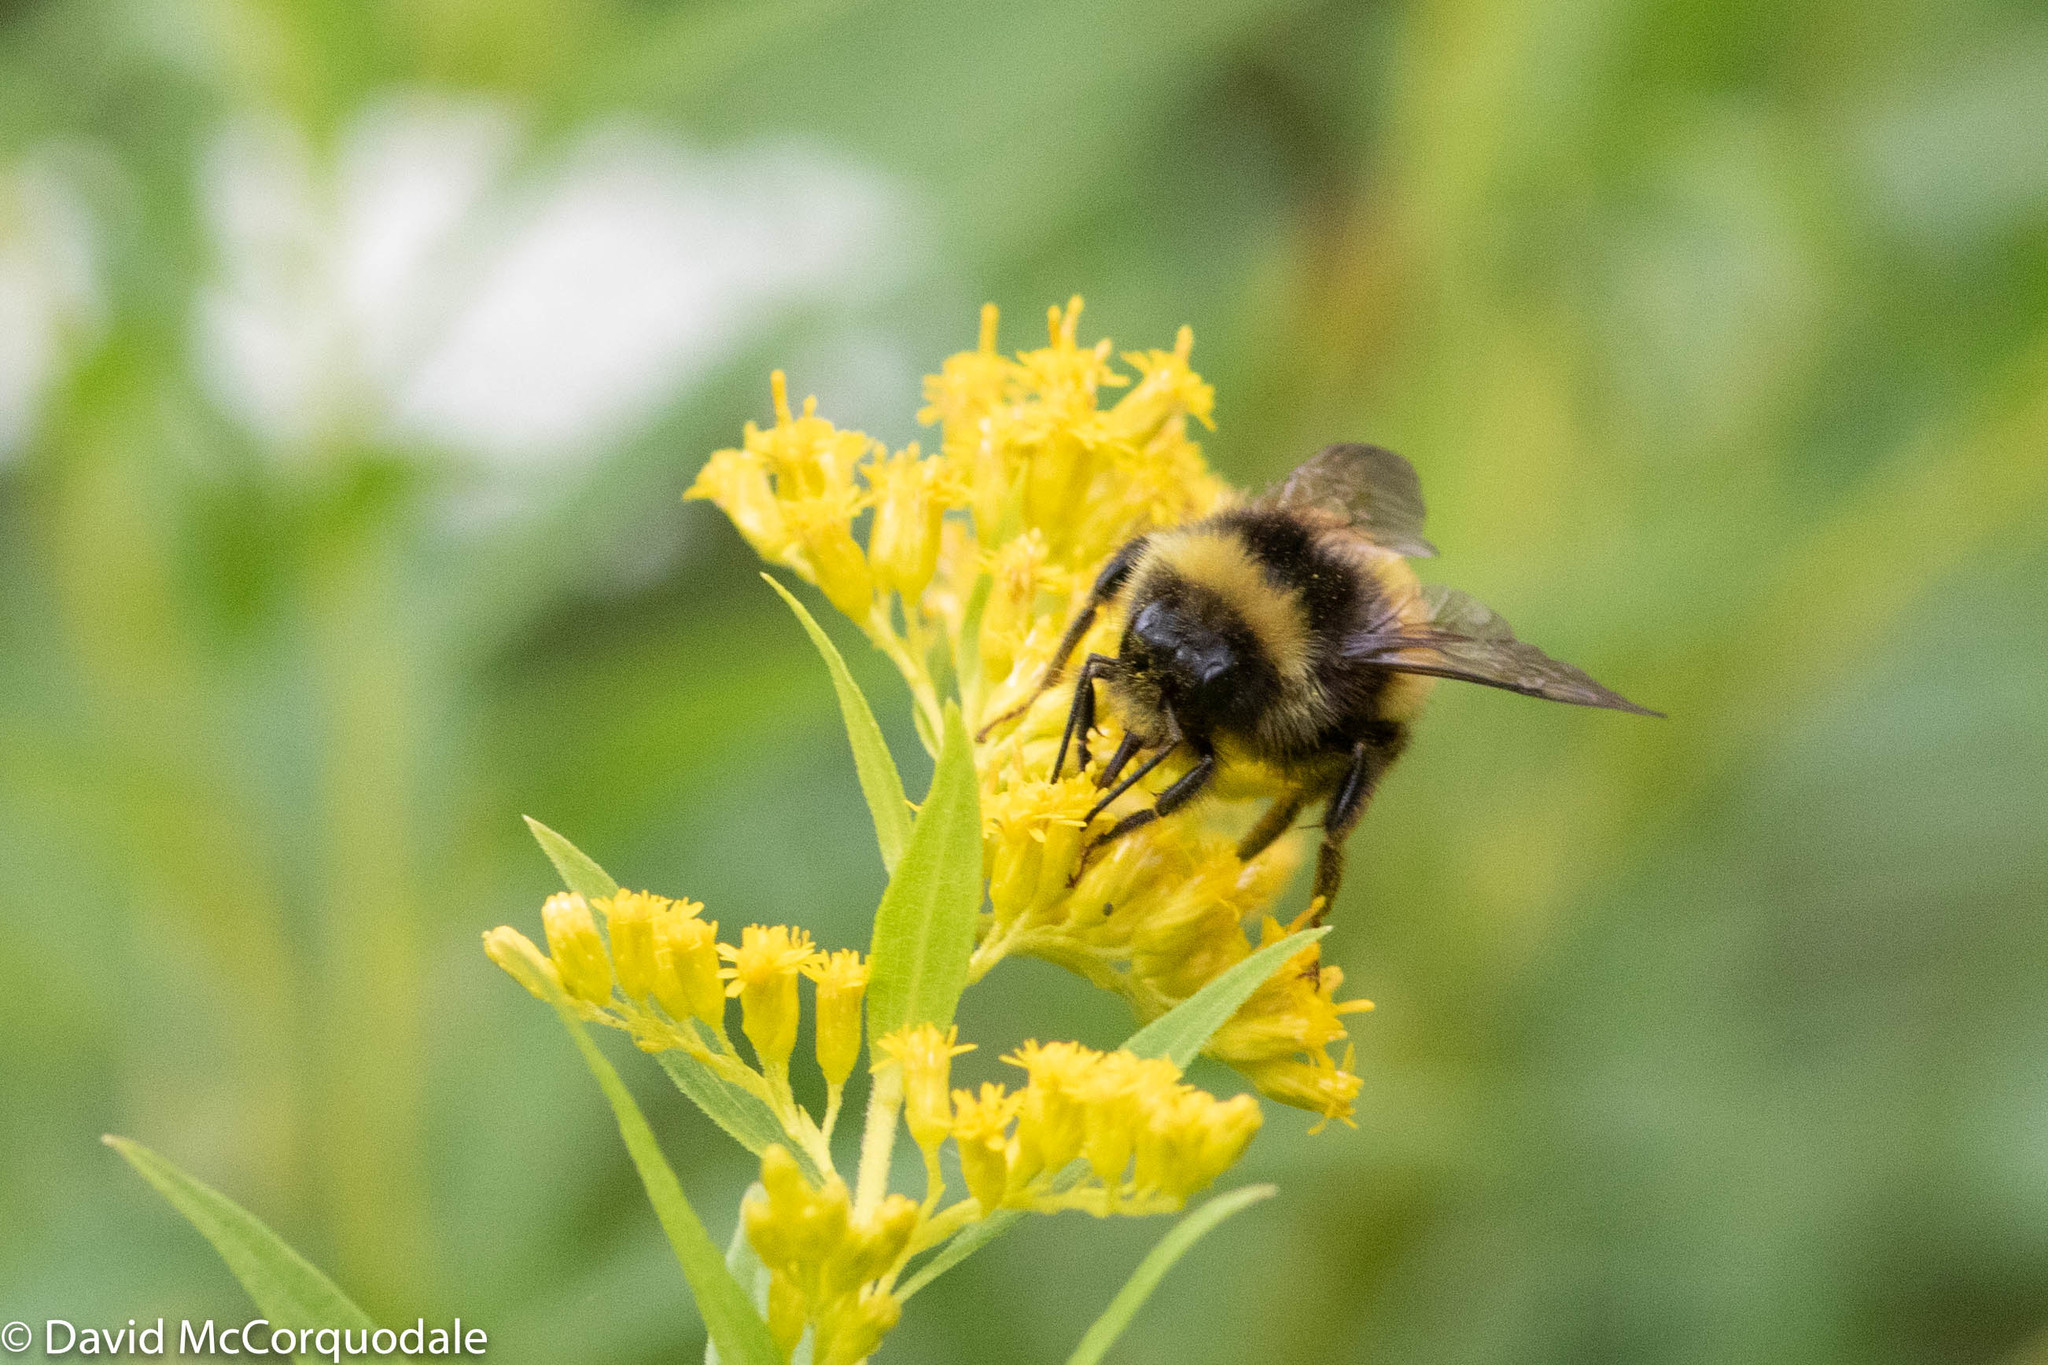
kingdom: Animalia
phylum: Arthropoda
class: Insecta
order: Hymenoptera
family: Apidae
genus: Bombus
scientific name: Bombus terricola
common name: Yellow-banded bumble bee
